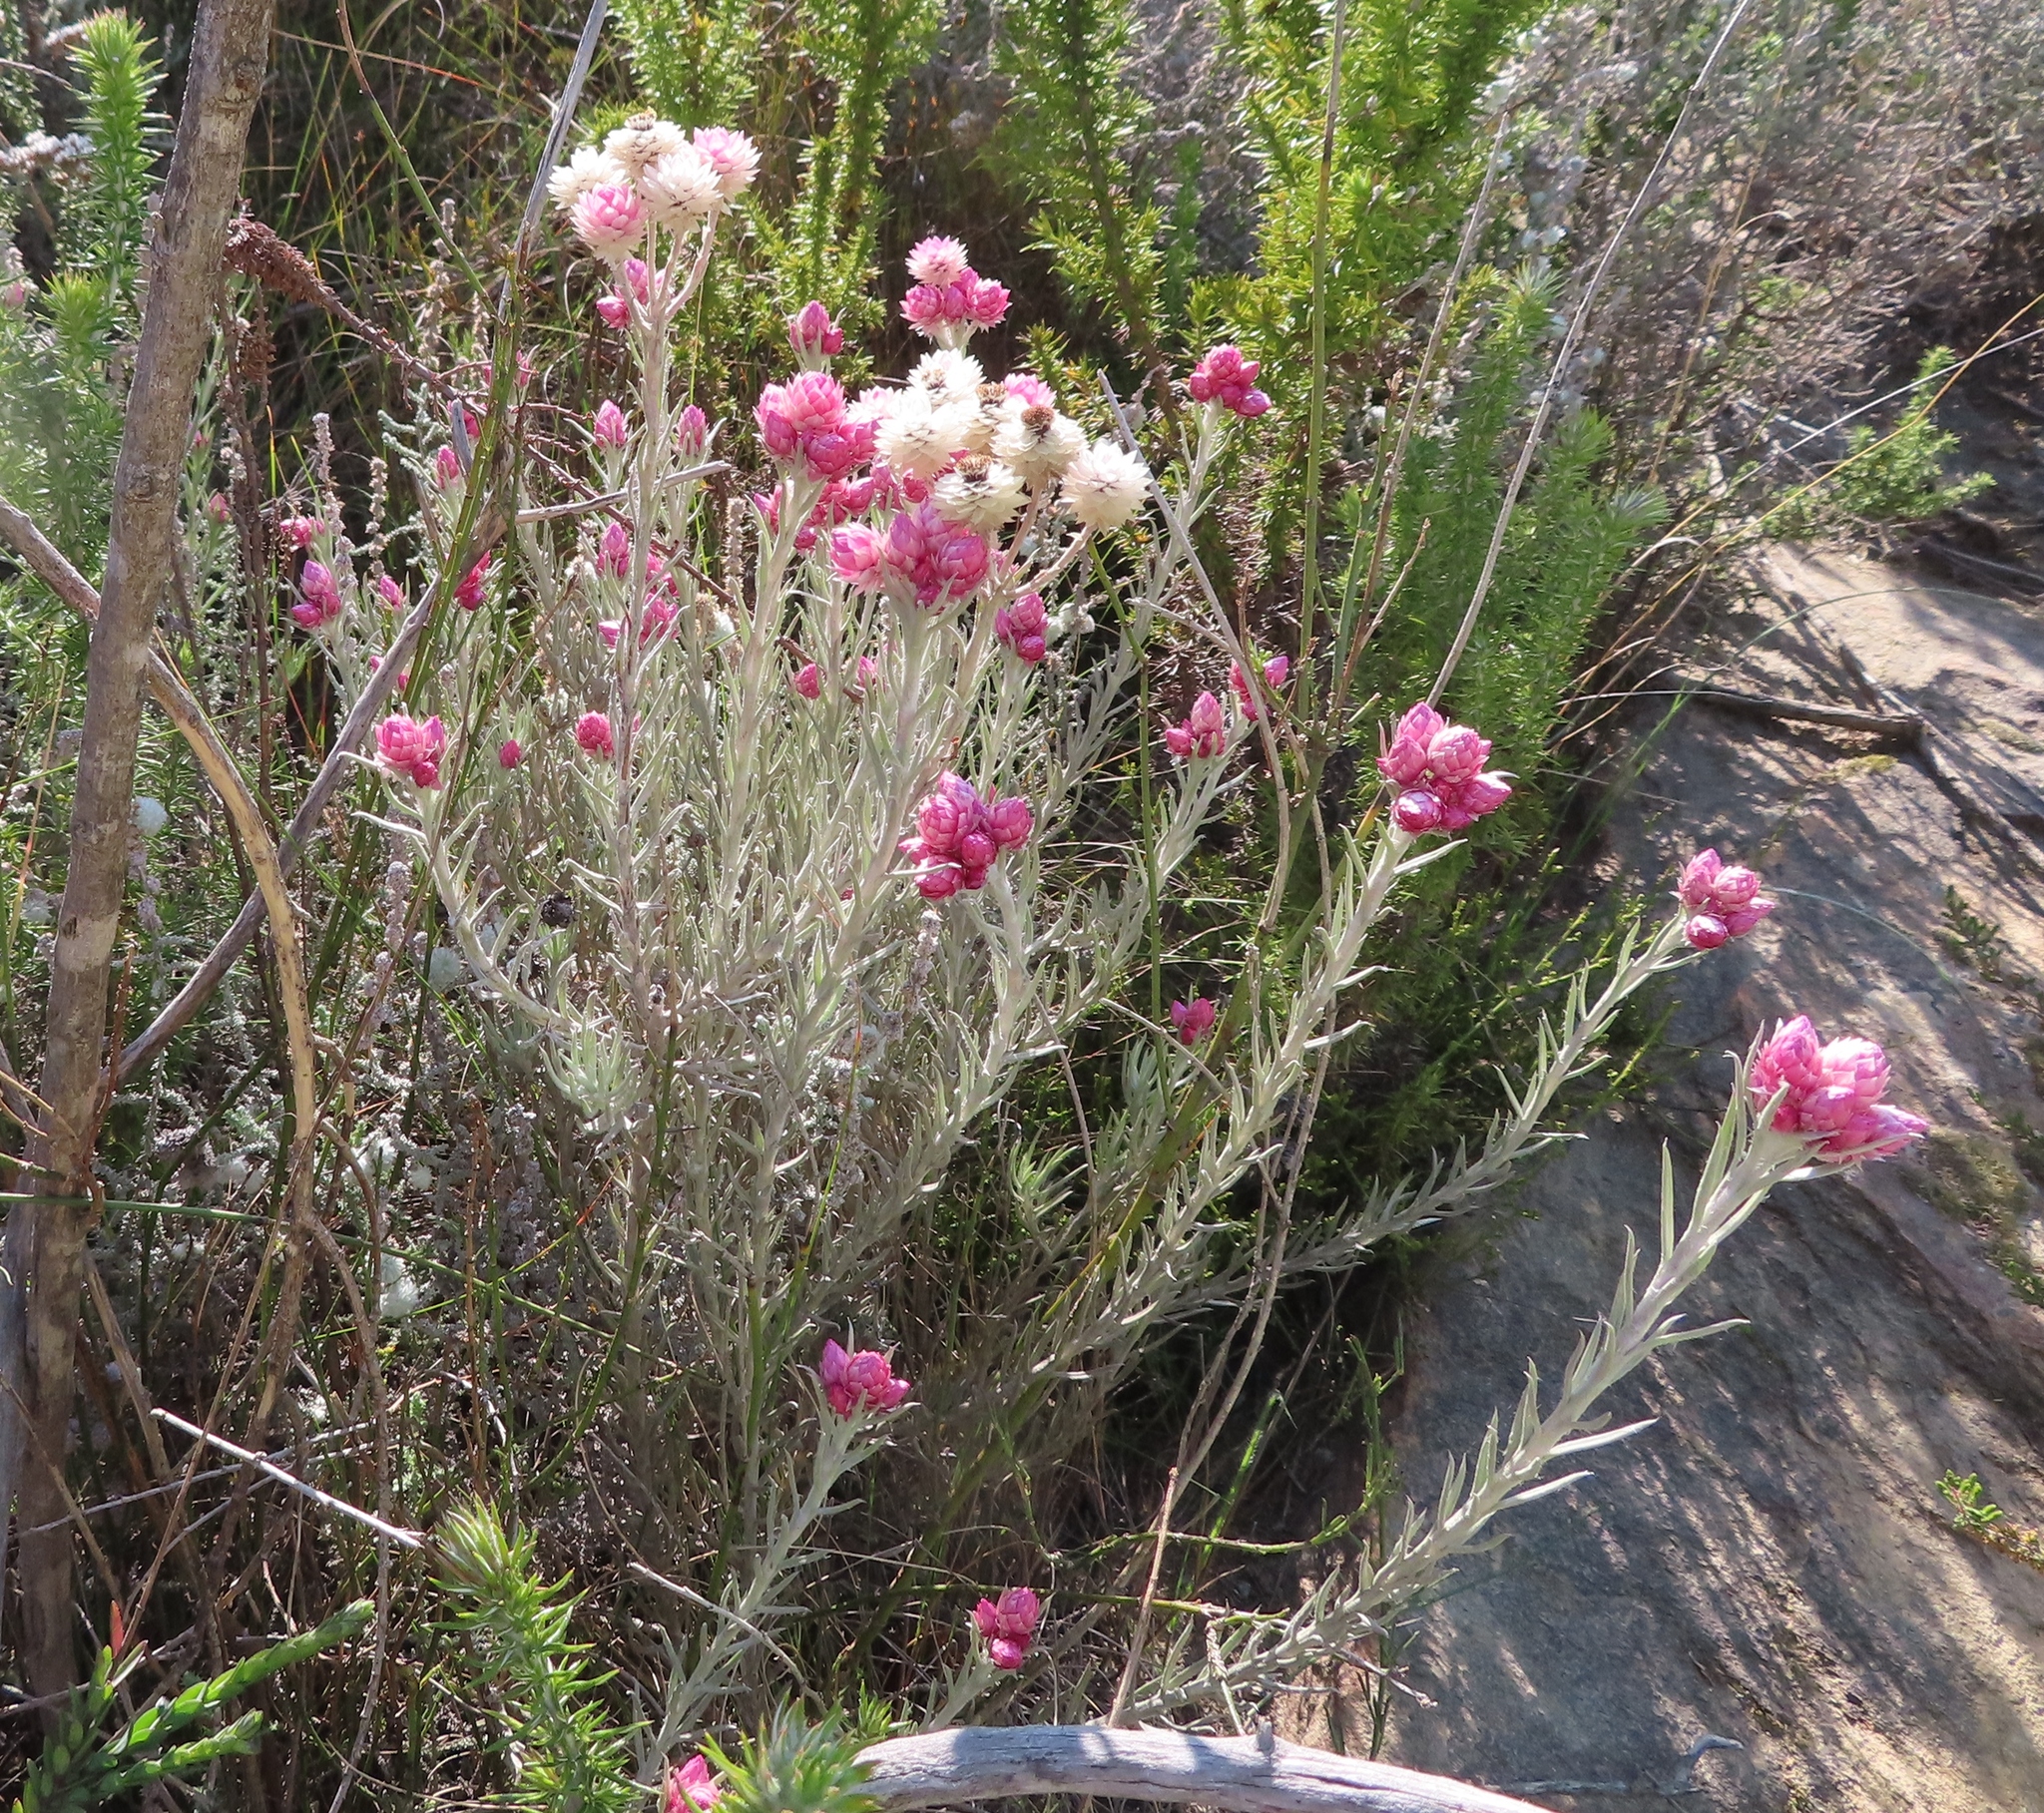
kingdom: Plantae
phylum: Tracheophyta
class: Magnoliopsida
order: Asterales
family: Asteraceae
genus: Achyranthemum
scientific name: Achyranthemum paniculatum
